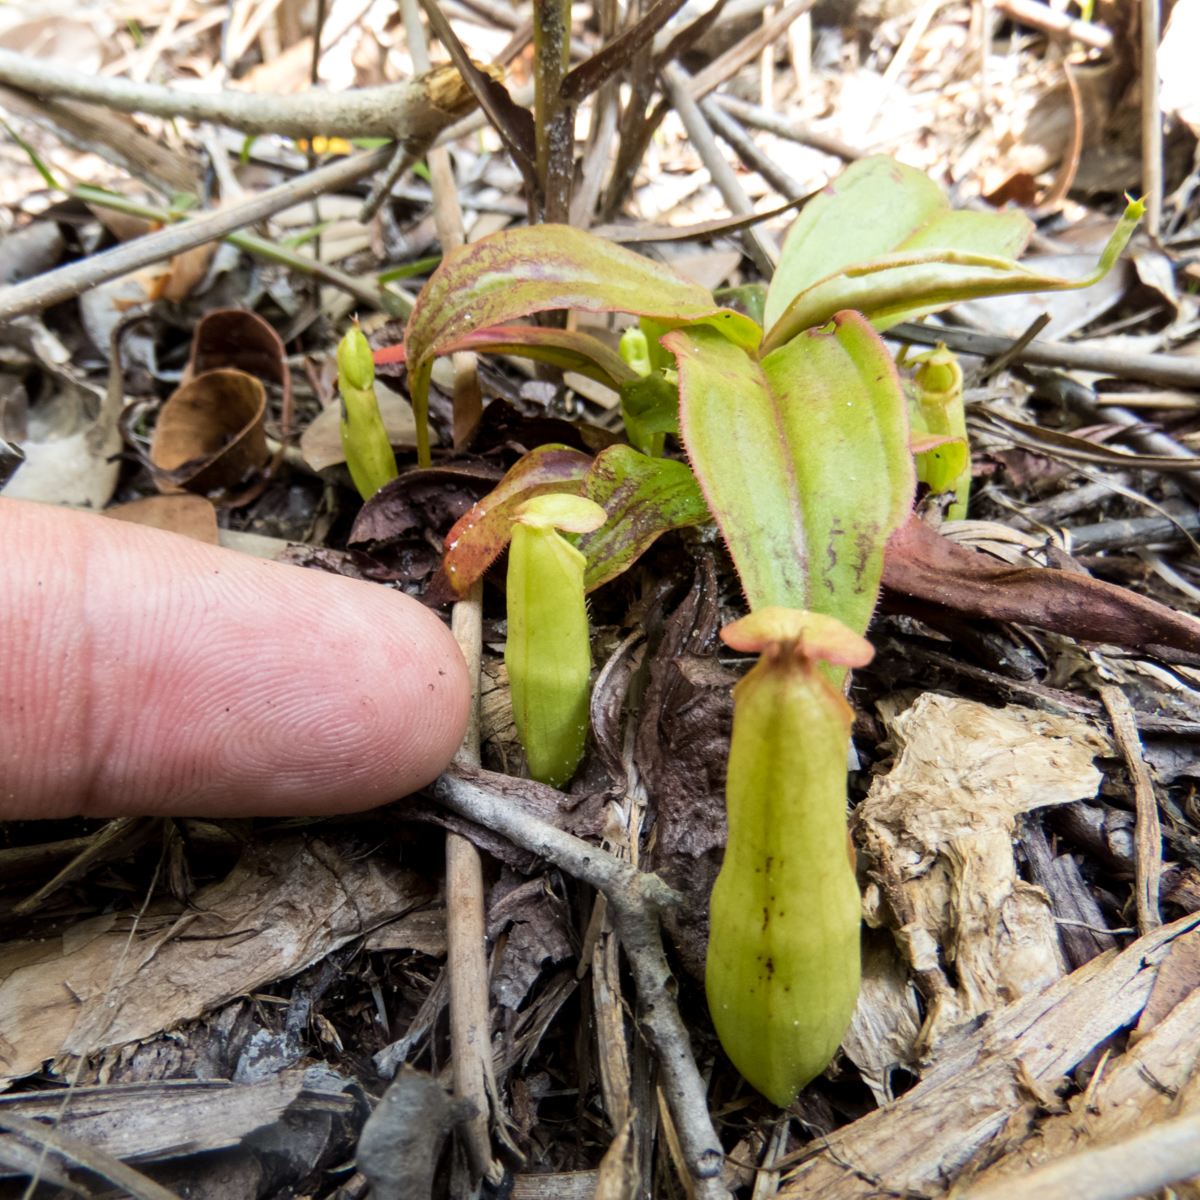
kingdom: Plantae
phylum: Tracheophyta
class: Magnoliopsida
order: Caryophyllales
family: Nepenthaceae
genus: Nepenthes
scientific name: Nepenthes mirabilis
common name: Tropical pitcherplant
